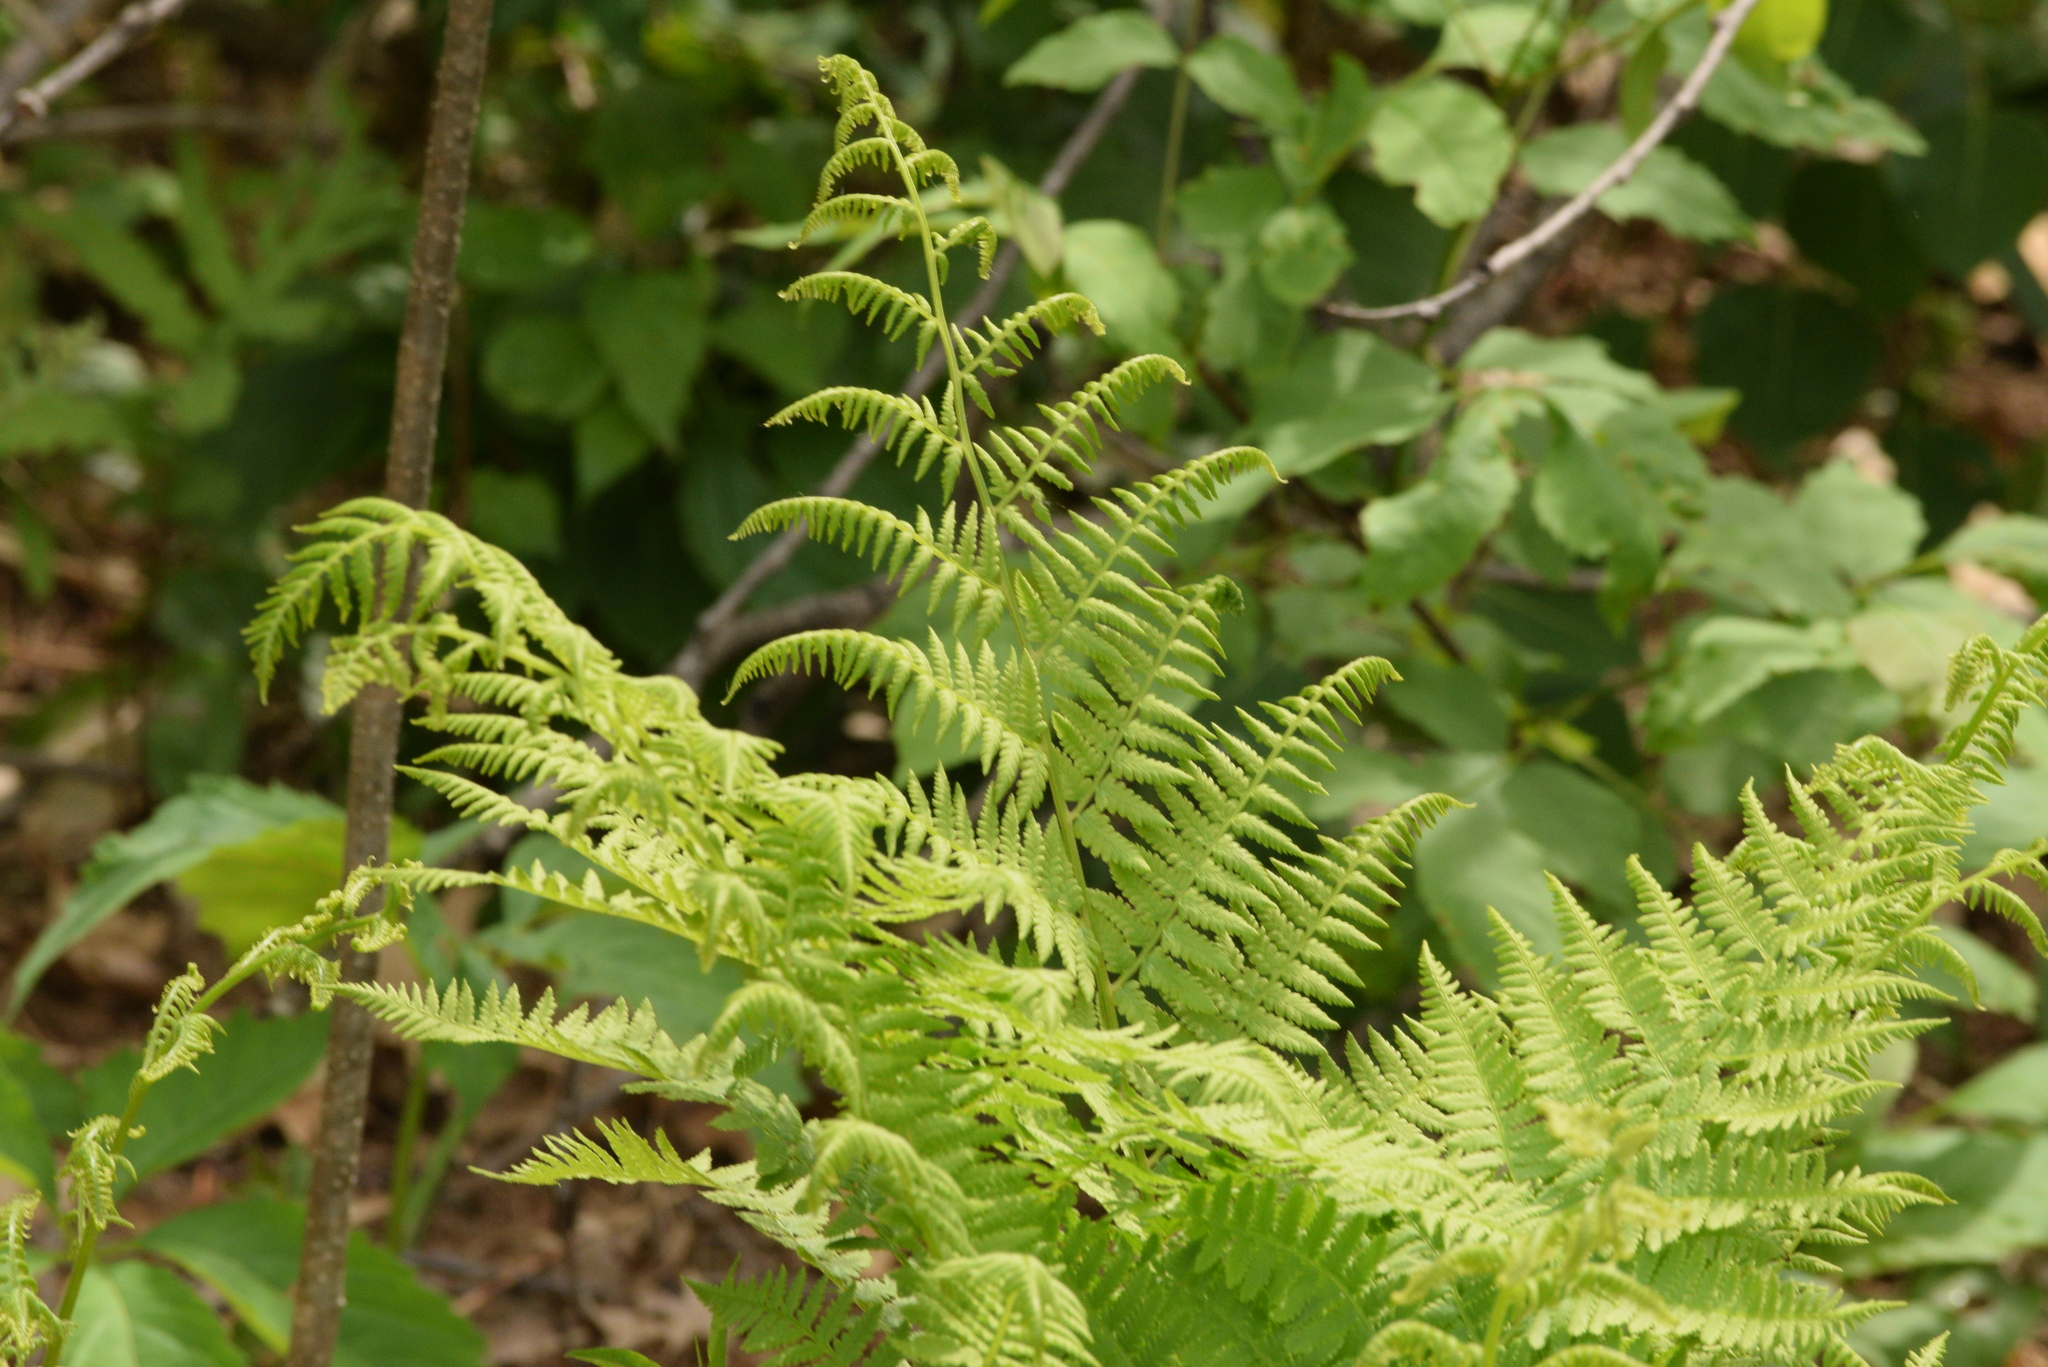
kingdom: Plantae
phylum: Tracheophyta
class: Polypodiopsida
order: Polypodiales
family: Athyriaceae
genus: Athyrium
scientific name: Athyrium angustum
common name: Northern lady fern
